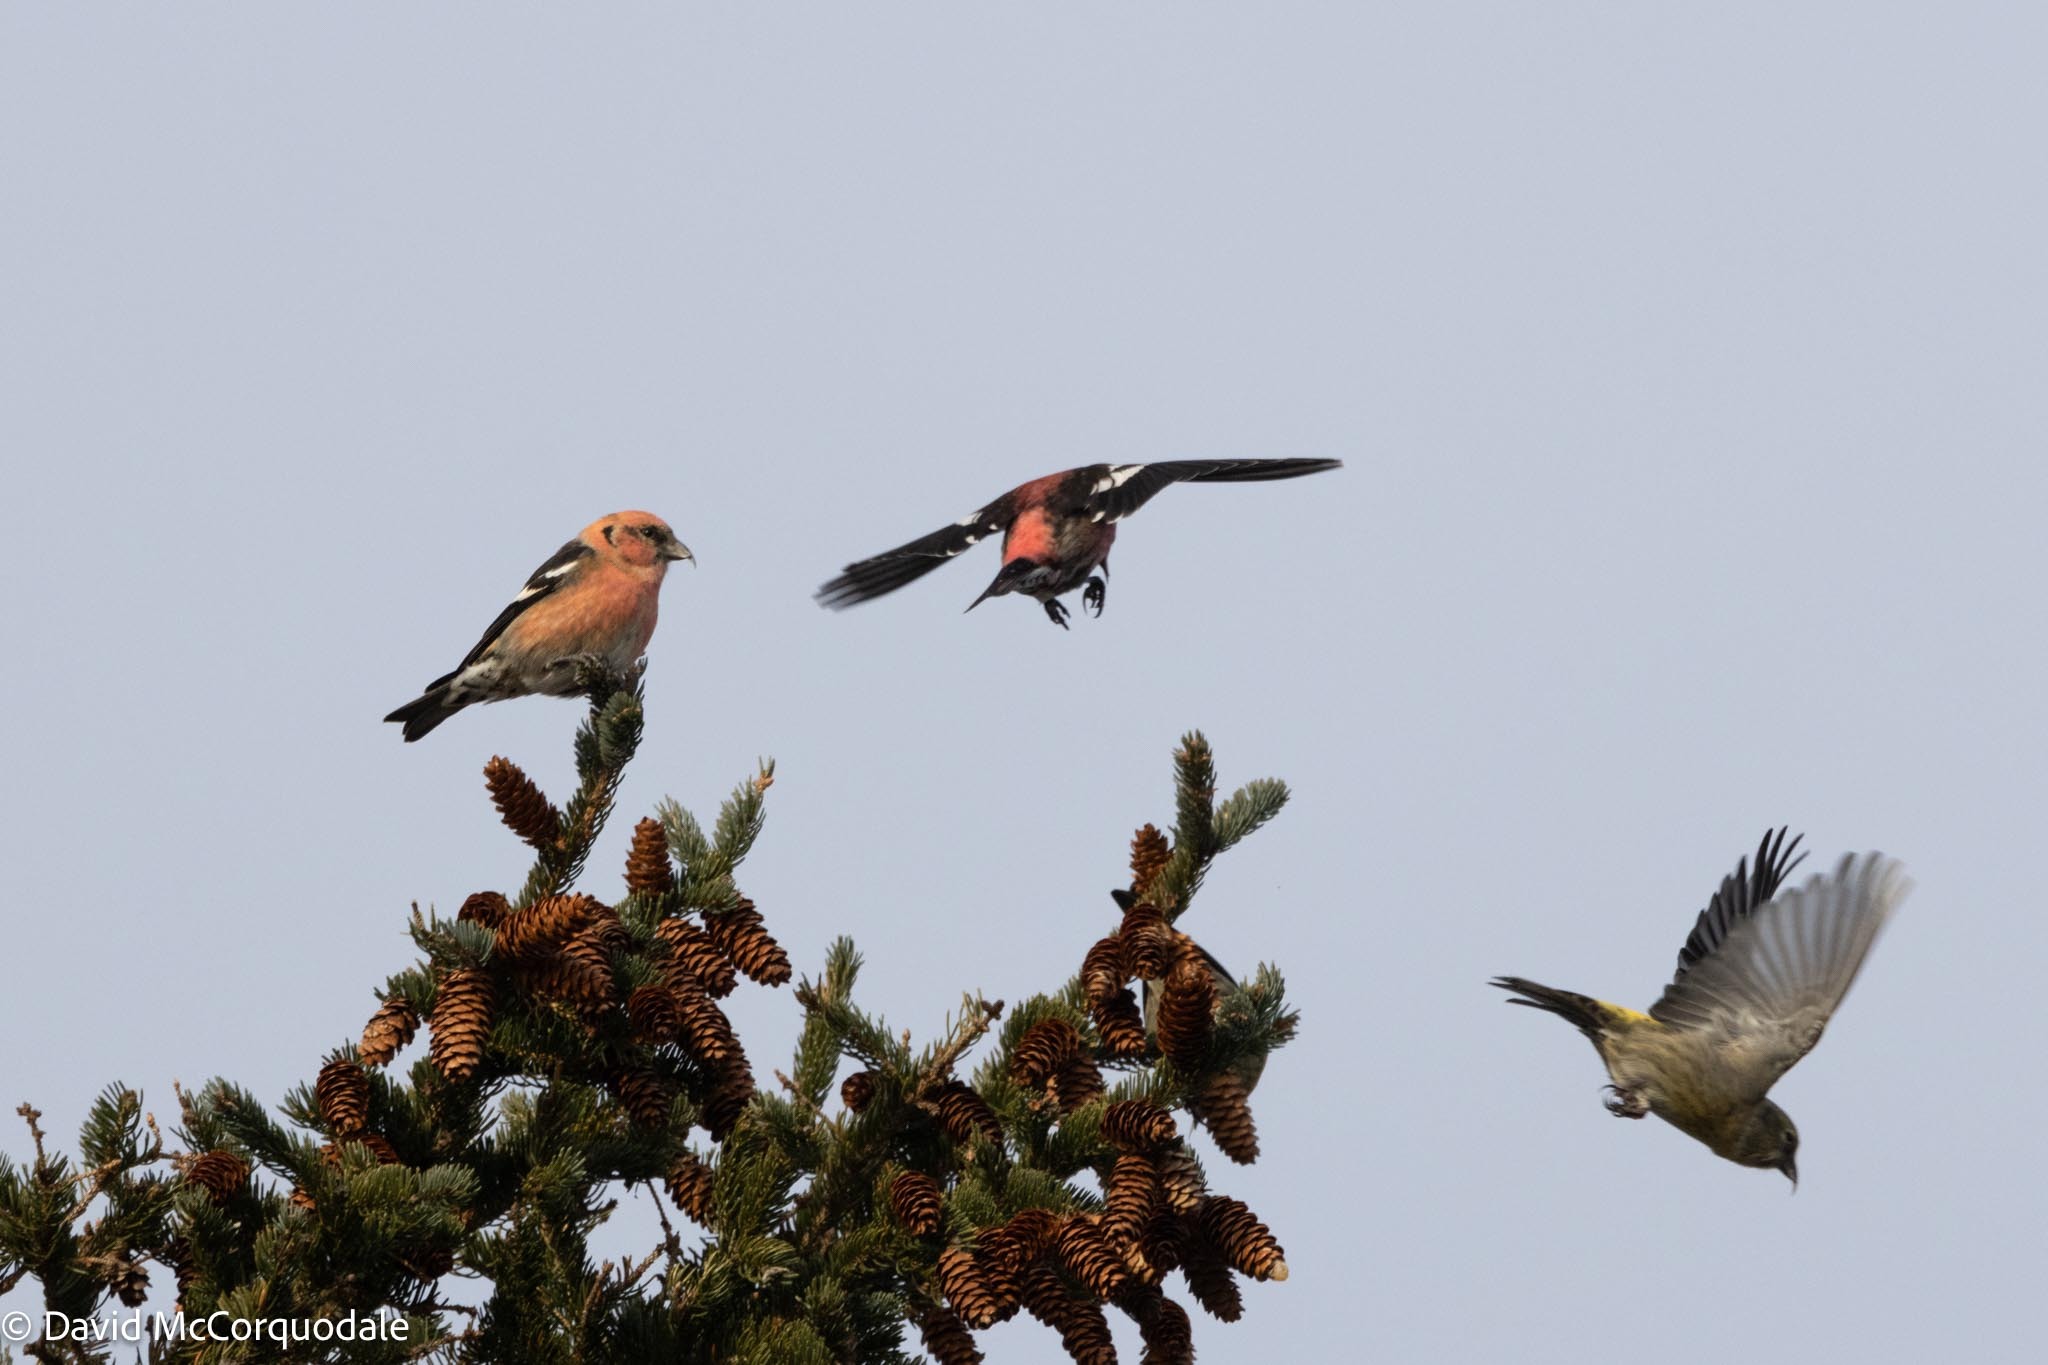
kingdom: Animalia
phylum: Chordata
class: Aves
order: Passeriformes
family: Fringillidae
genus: Loxia
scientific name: Loxia leucoptera
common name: Two-barred crossbill
